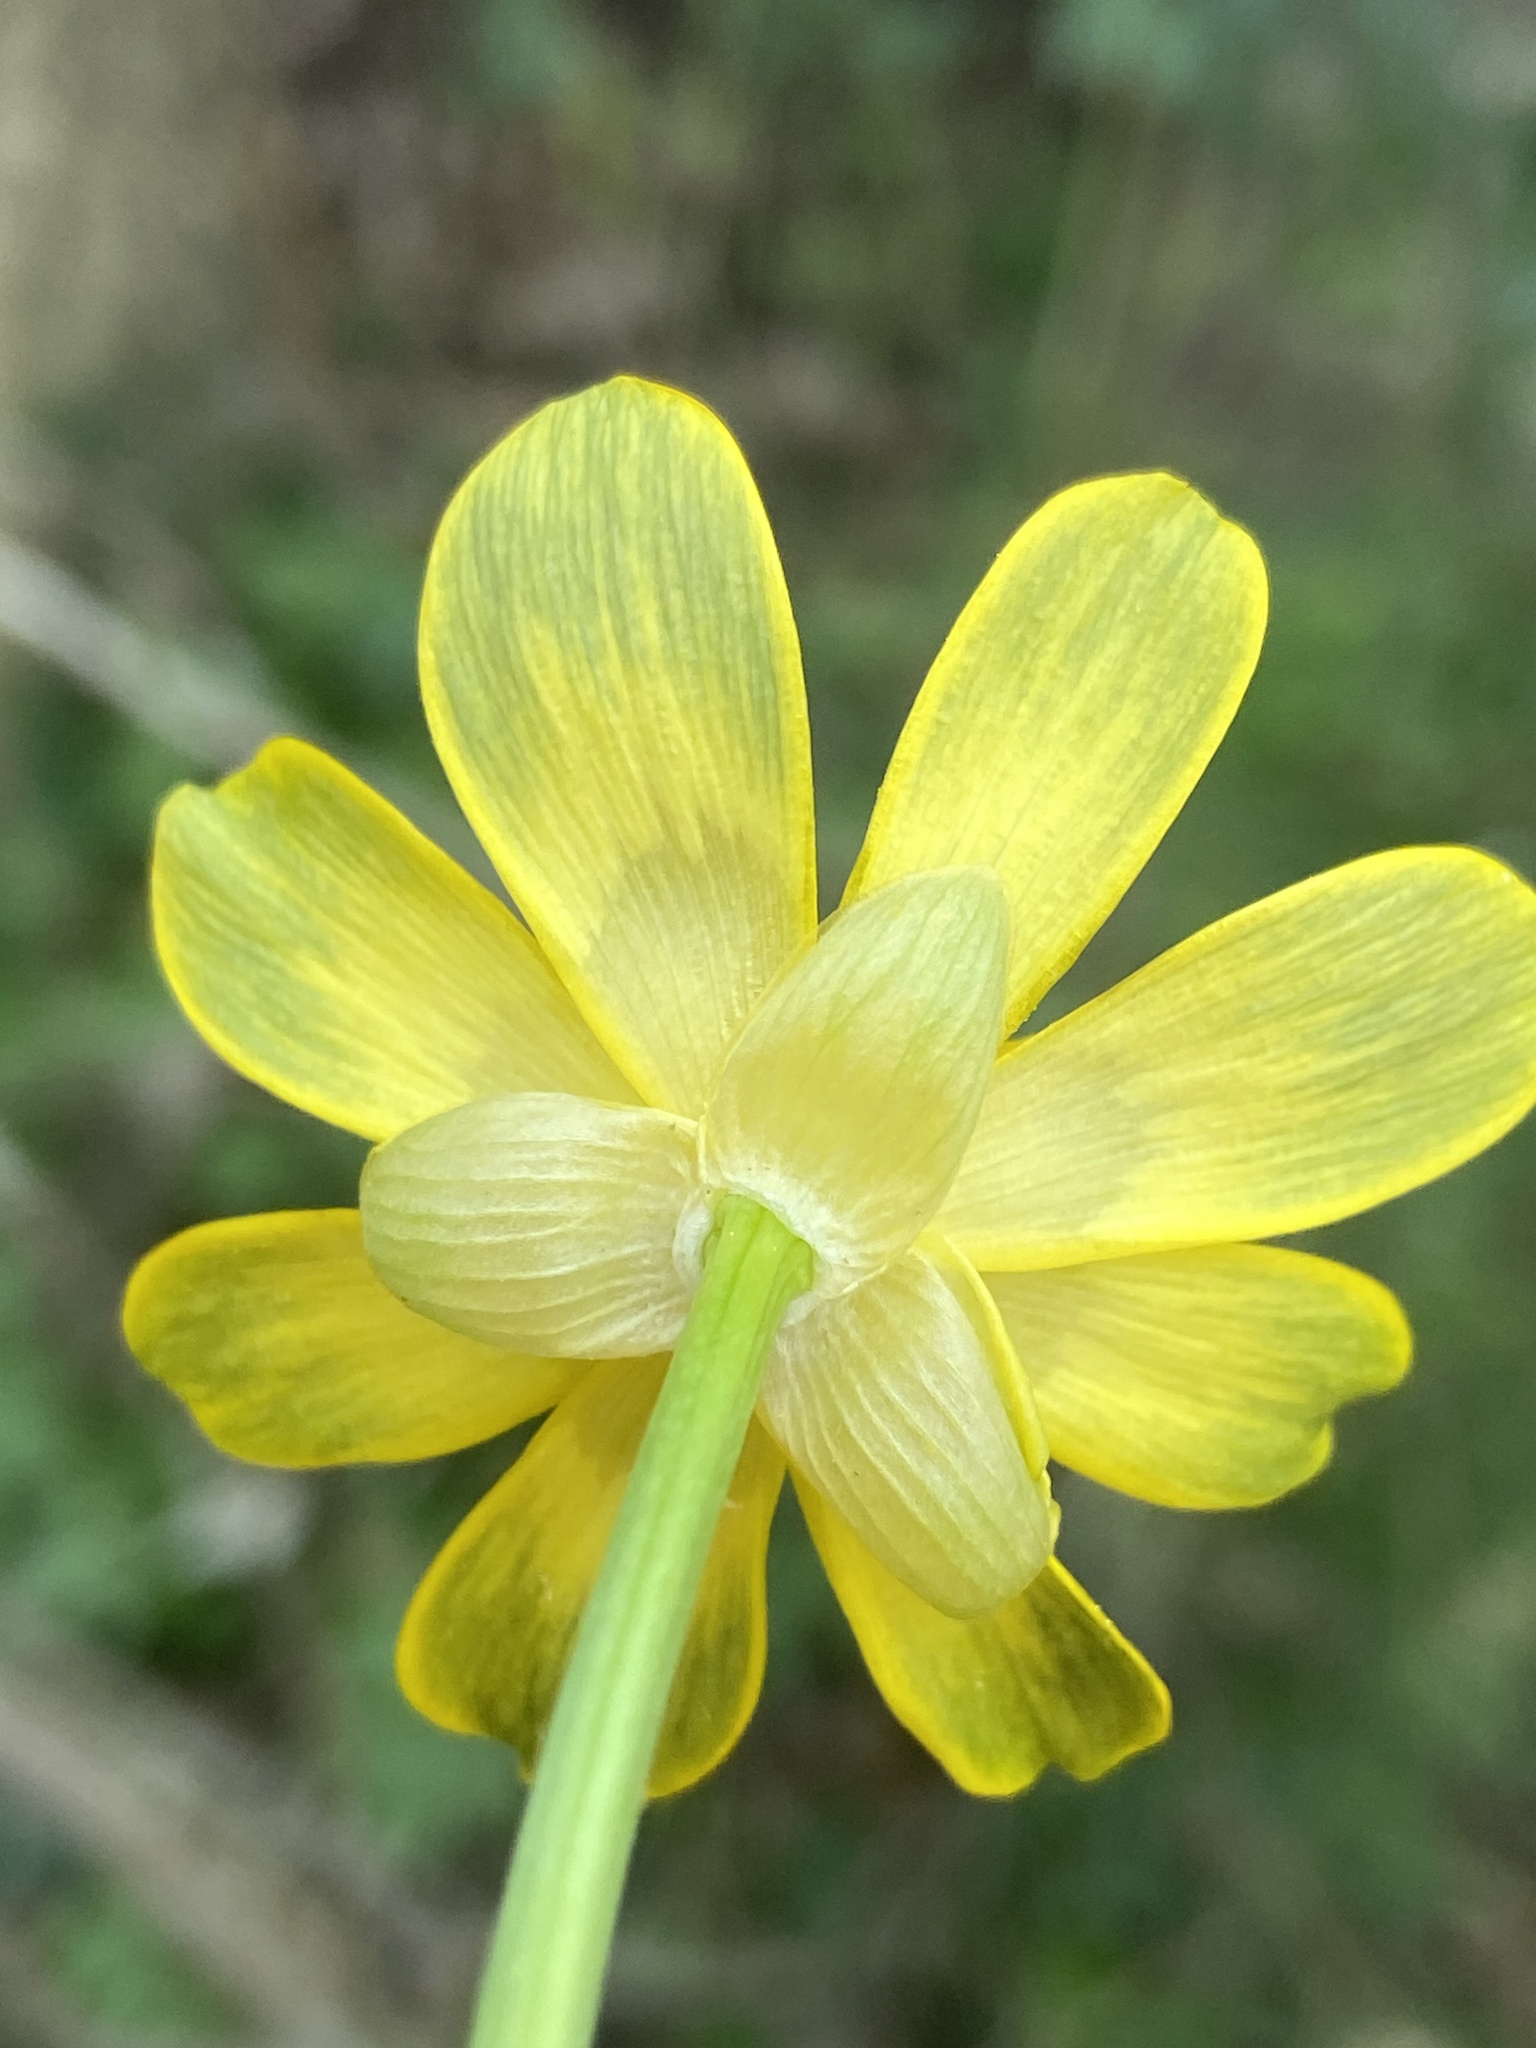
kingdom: Plantae
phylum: Tracheophyta
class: Magnoliopsida
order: Ranunculales
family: Ranunculaceae
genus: Ficaria
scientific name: Ficaria verna
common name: Lesser celandine
